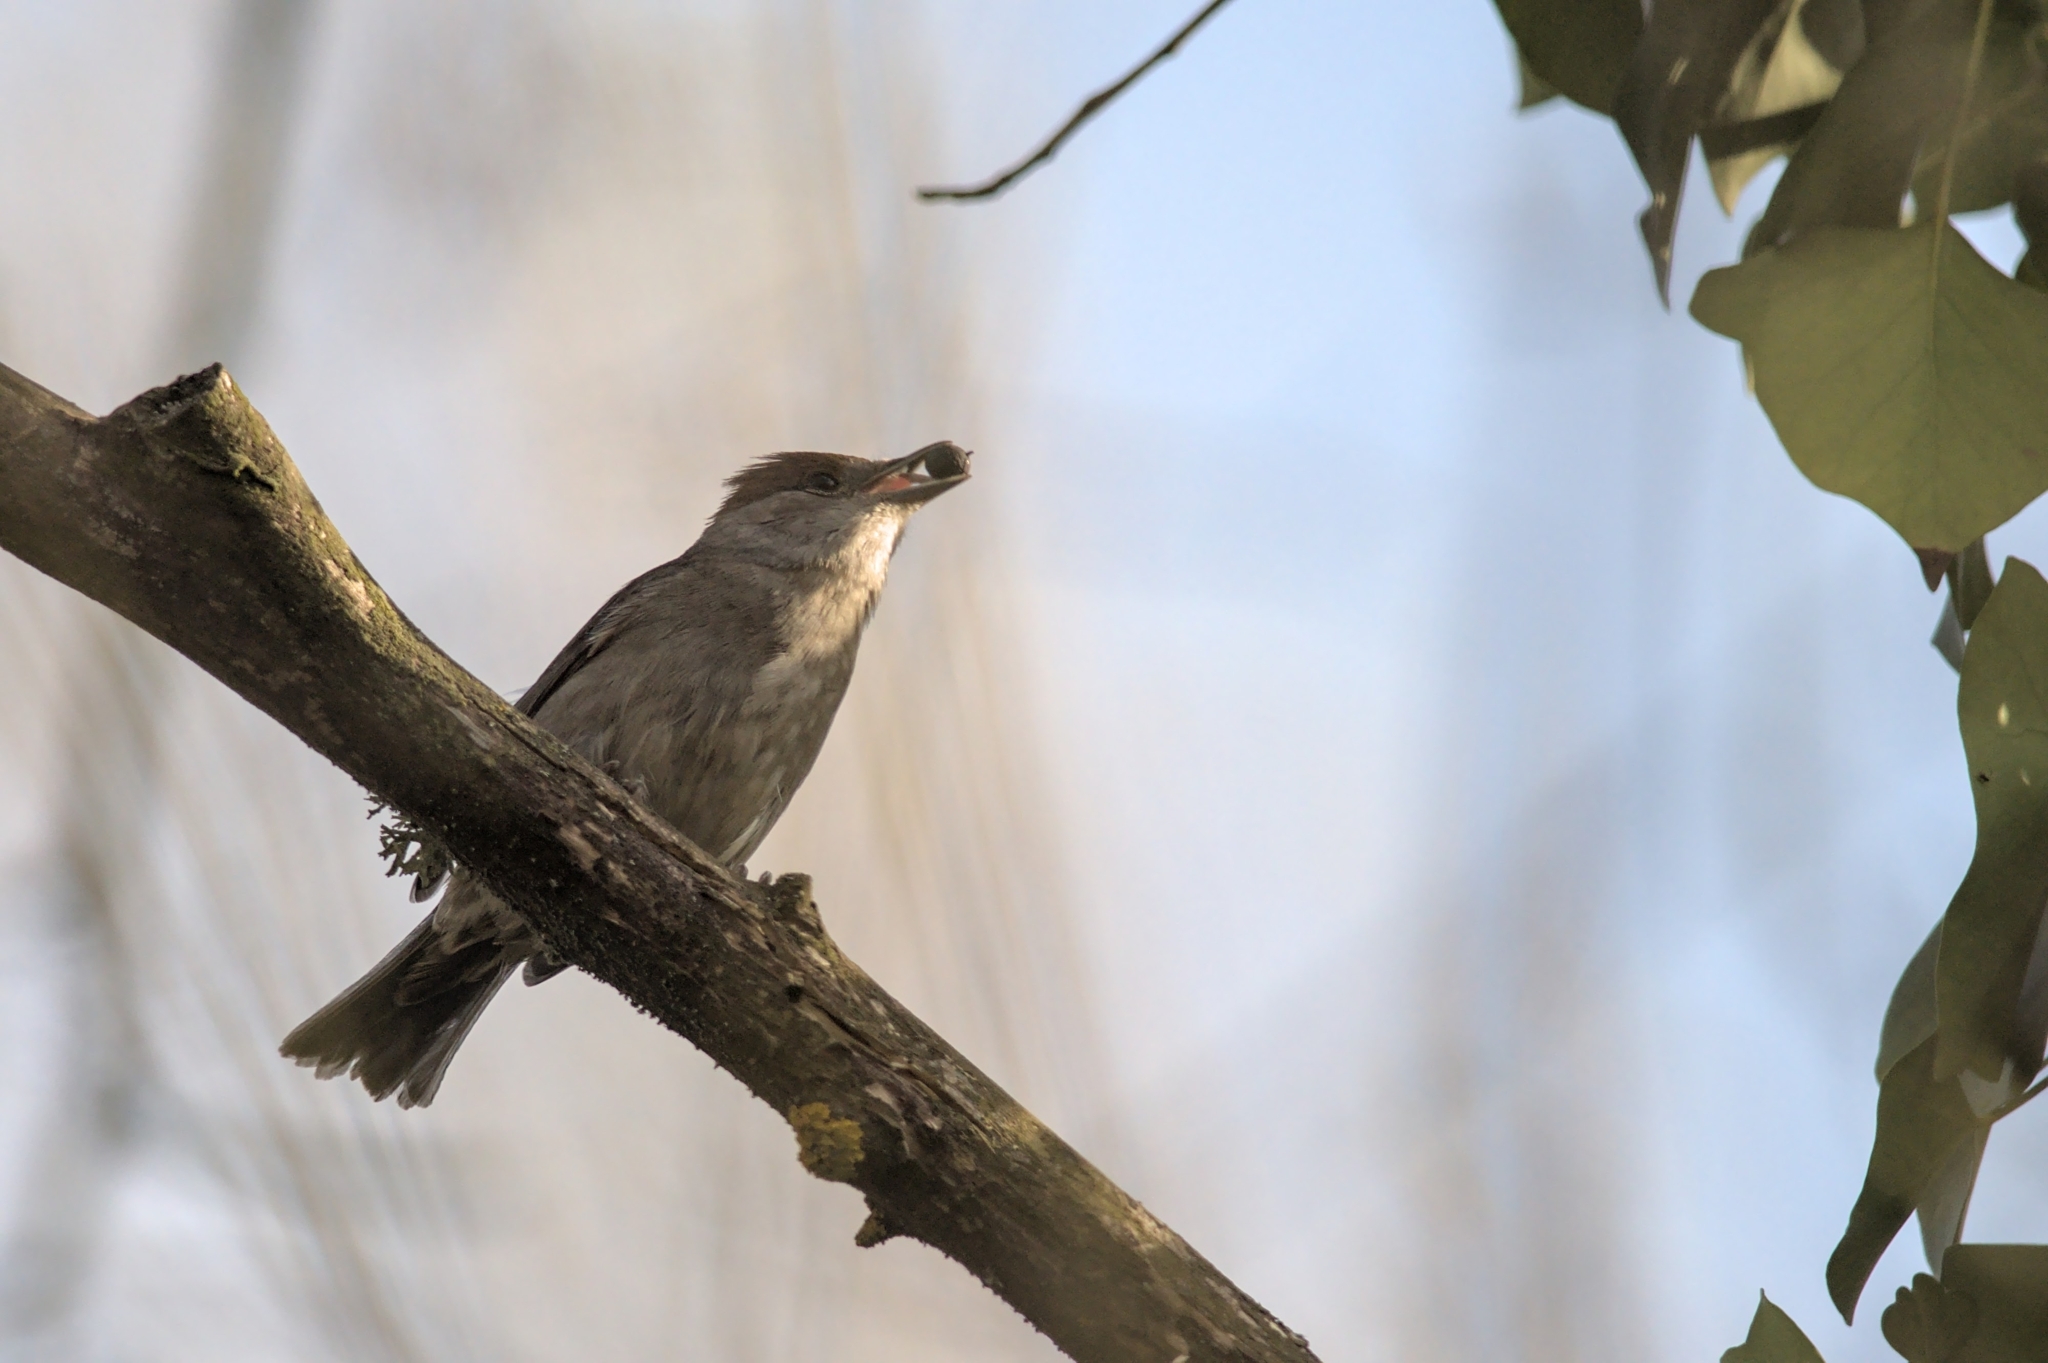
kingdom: Animalia
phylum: Chordata
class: Aves
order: Passeriformes
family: Sylviidae
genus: Sylvia
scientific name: Sylvia atricapilla
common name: Eurasian blackcap
